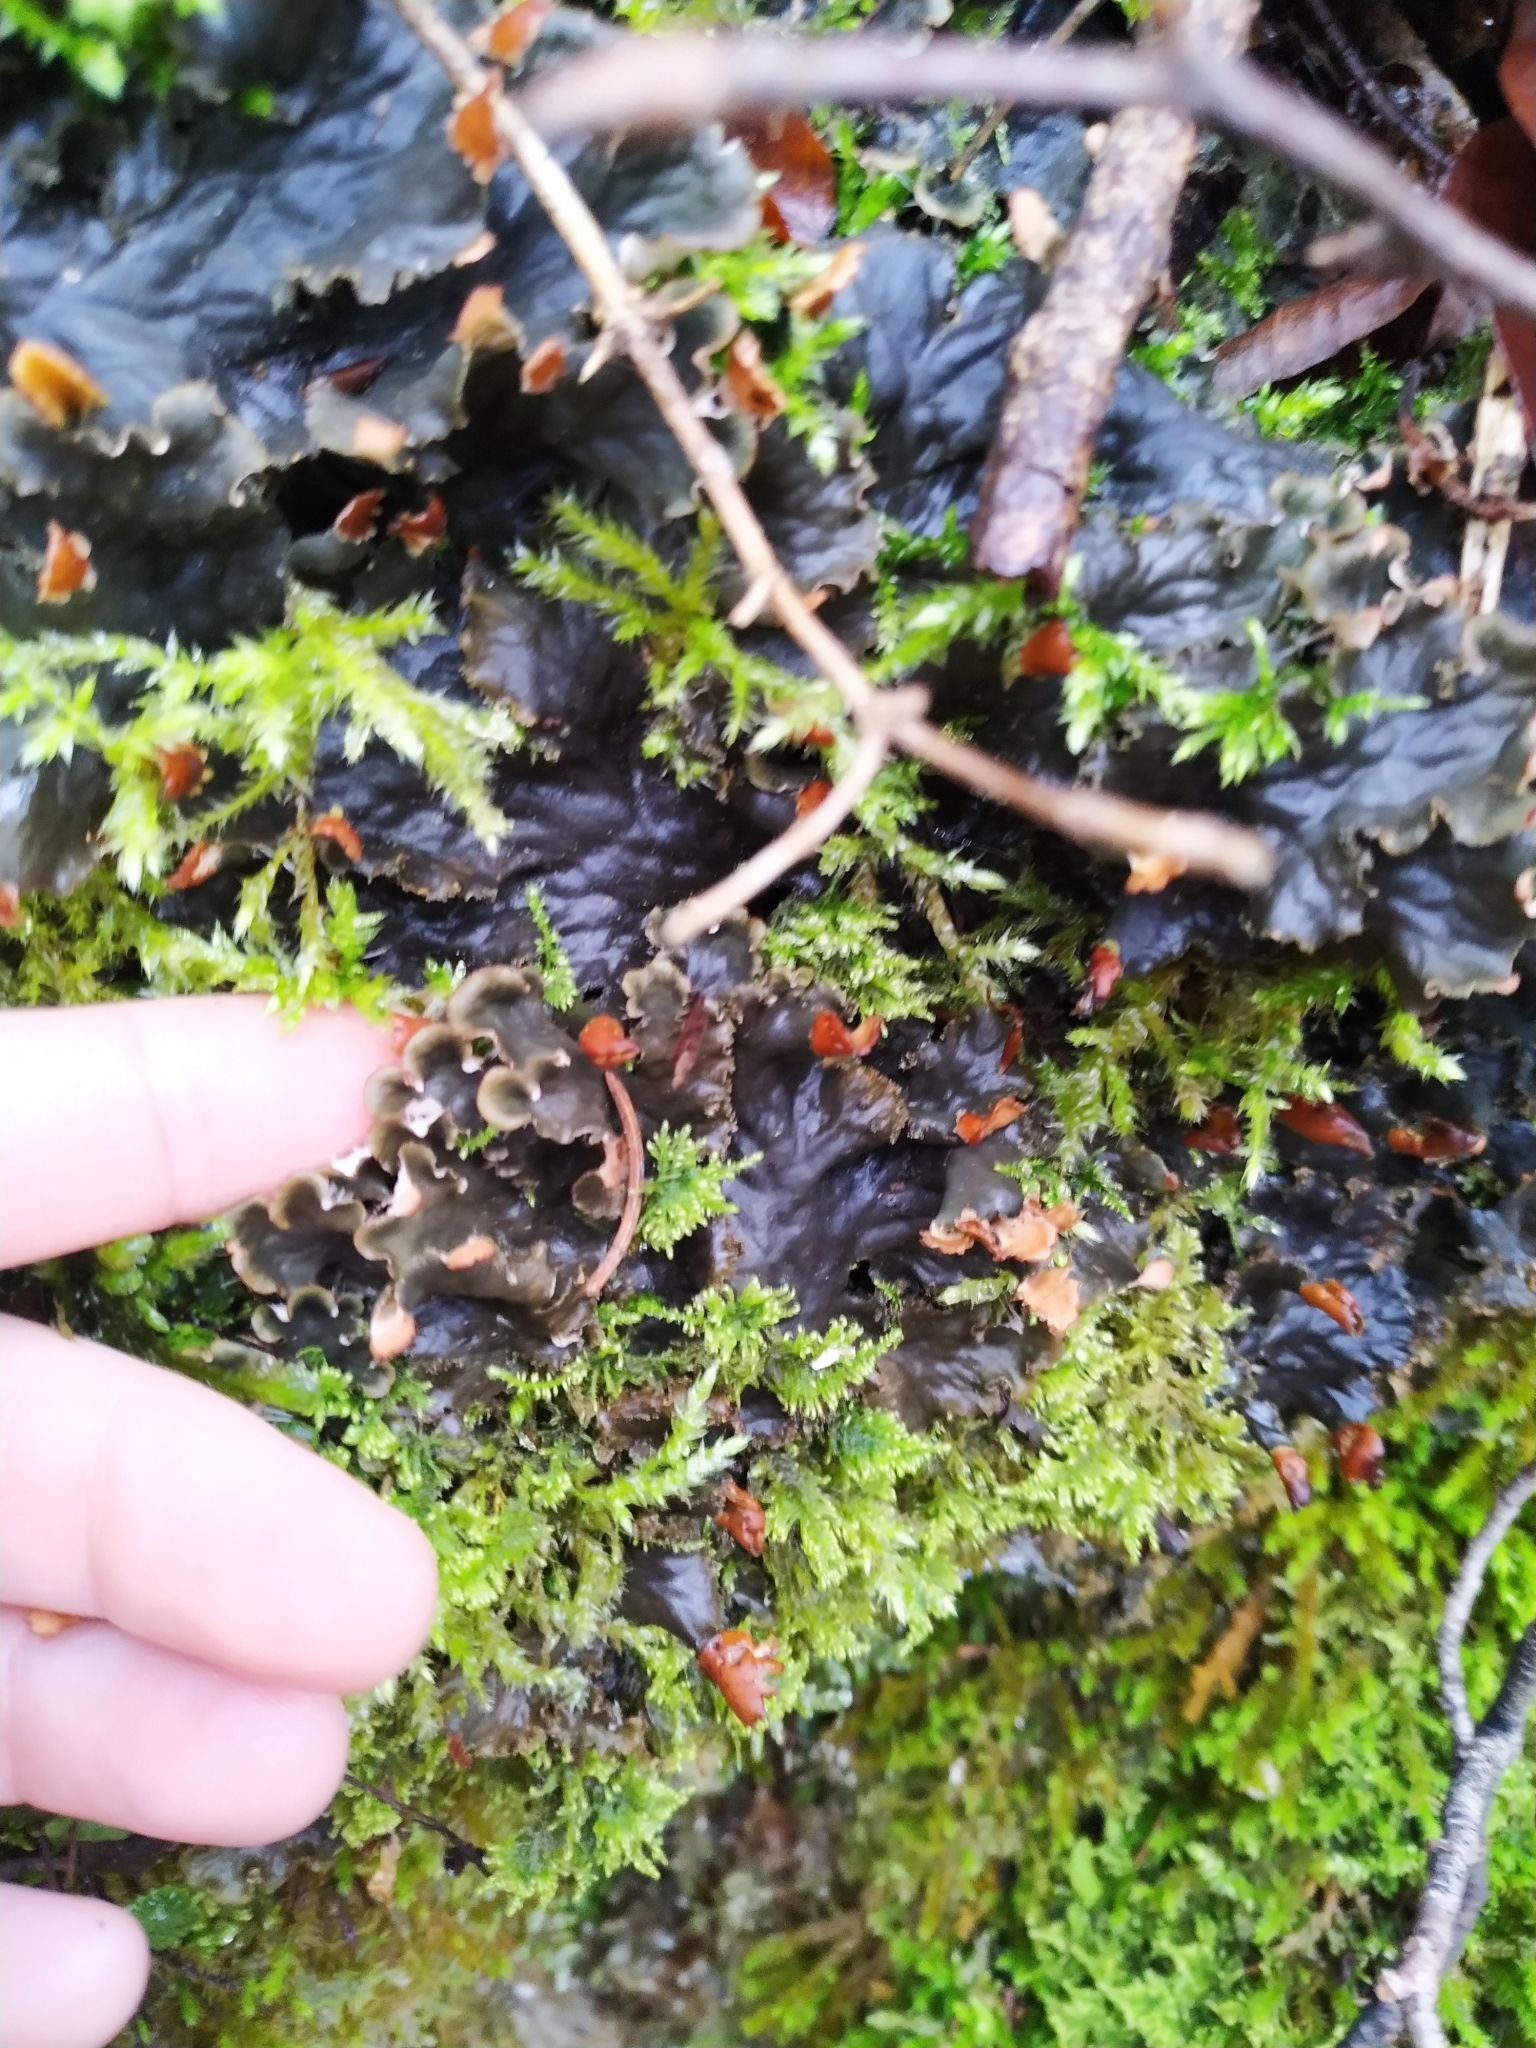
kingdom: Fungi
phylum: Ascomycota
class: Lecanoromycetes
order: Peltigerales
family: Peltigeraceae
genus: Peltigera
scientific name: Peltigera praetextata
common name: Scaly dog-lichen
